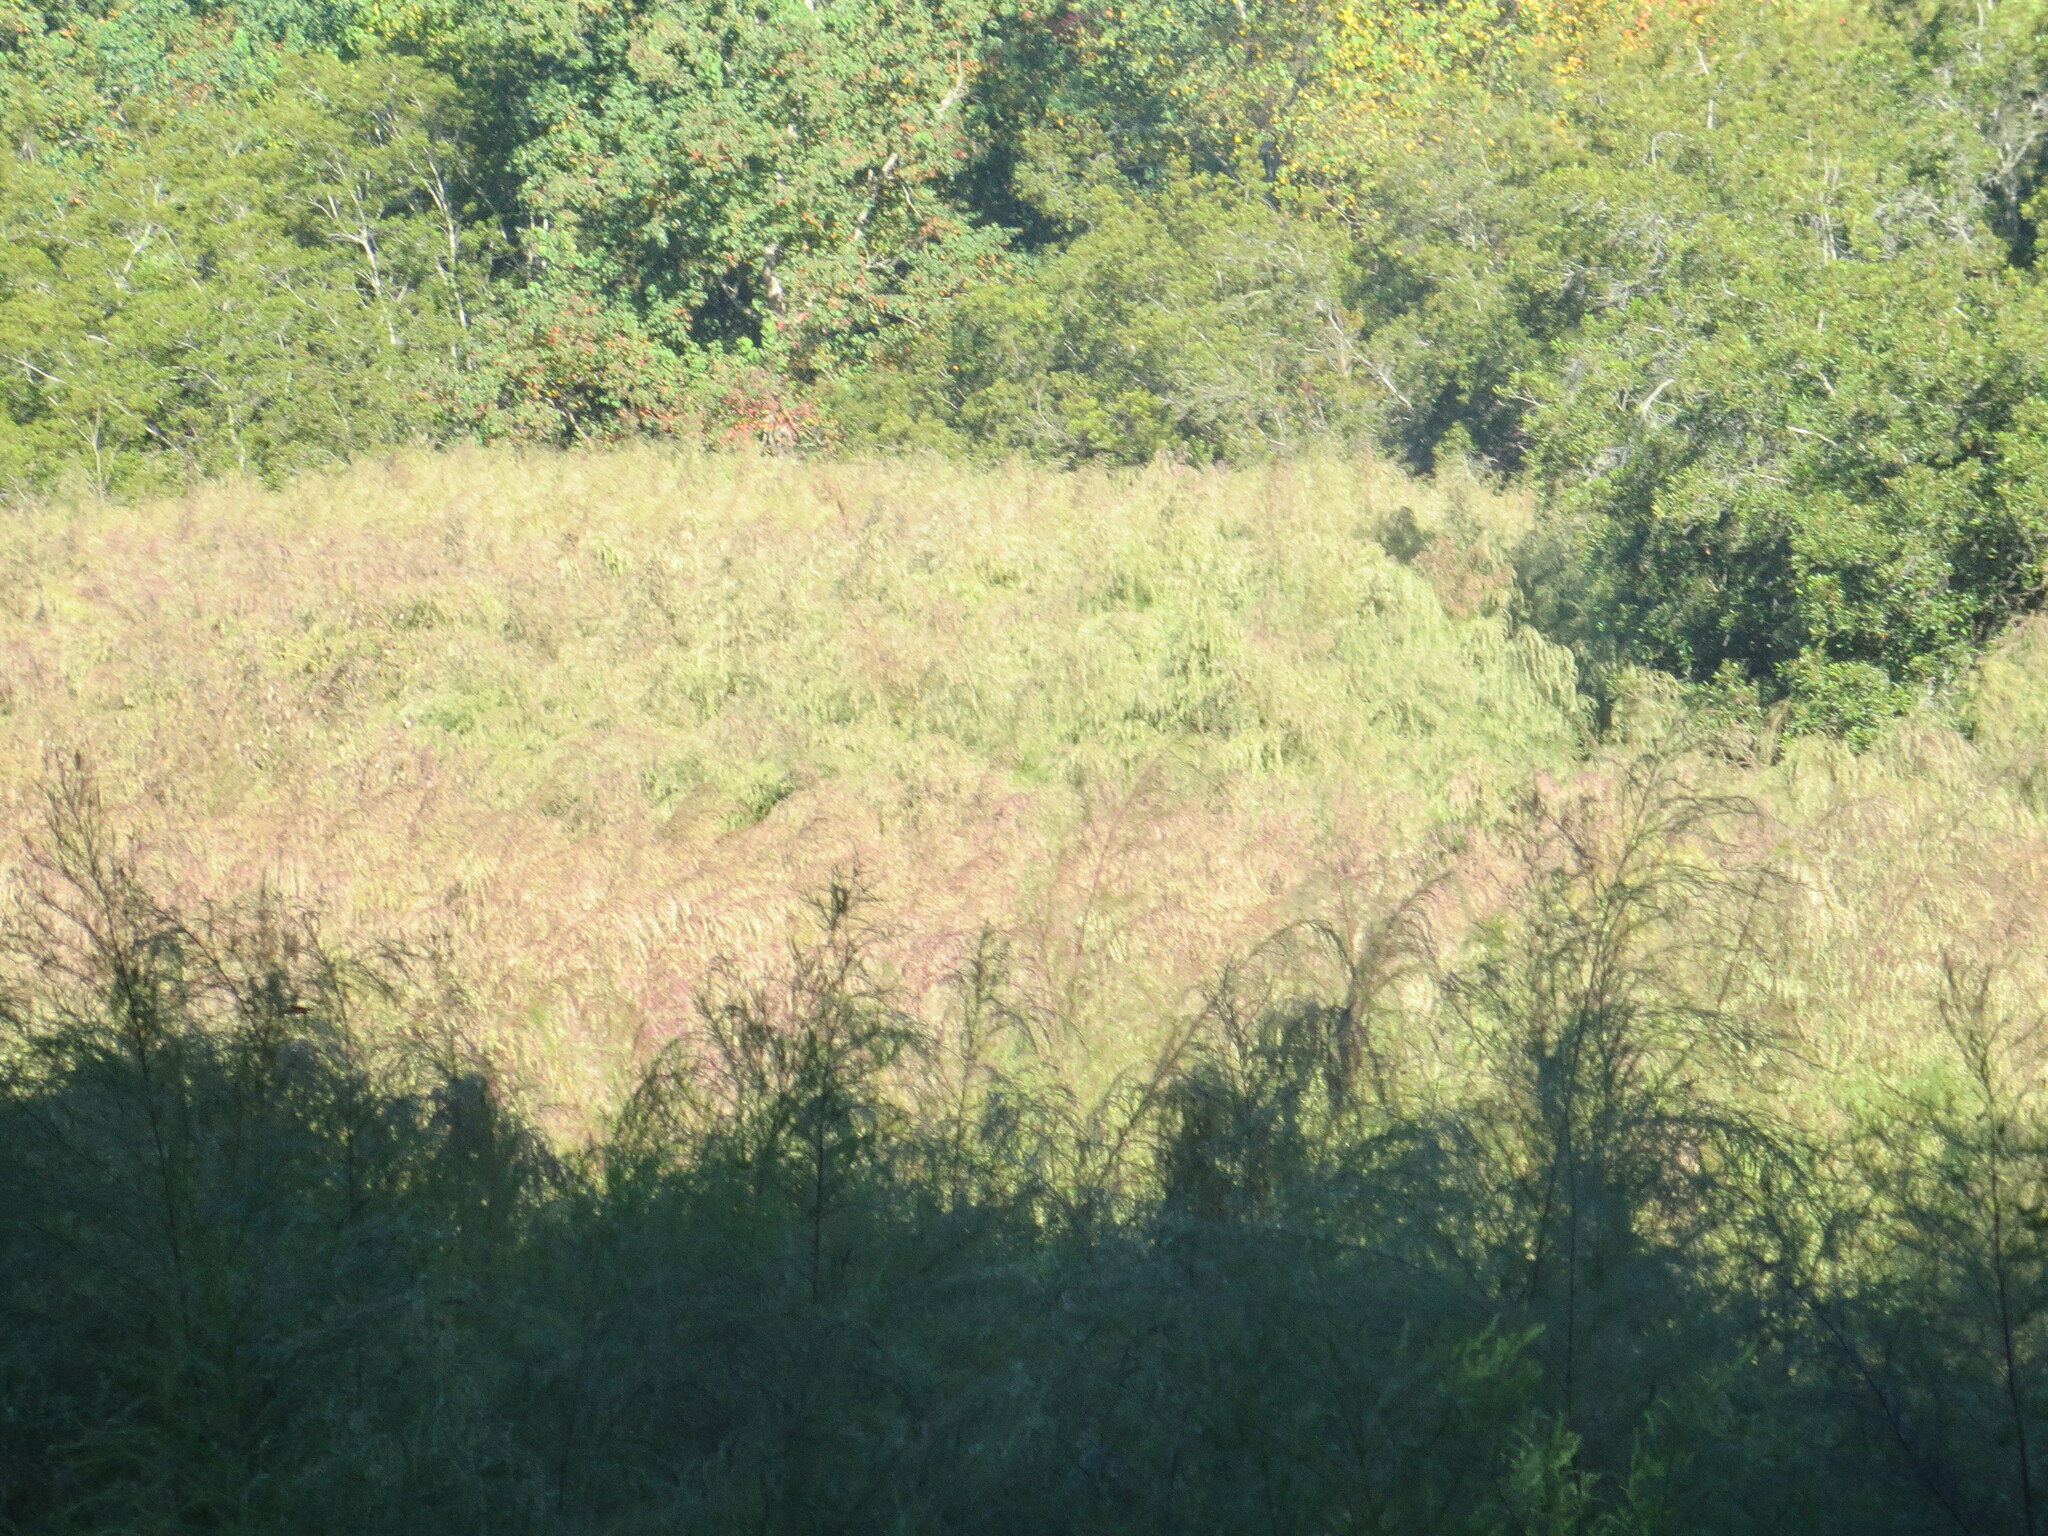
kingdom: Plantae
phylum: Tracheophyta
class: Magnoliopsida
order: Asterales
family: Asteraceae
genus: Eupatorium
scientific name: Eupatorium capillifolium
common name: Dog-fennel
